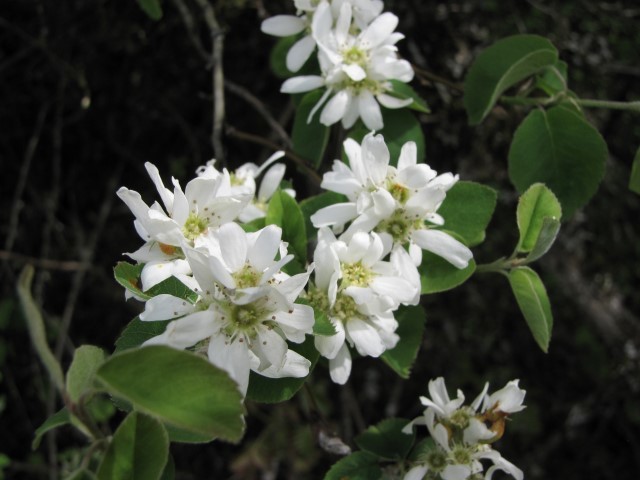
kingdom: Plantae
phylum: Tracheophyta
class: Magnoliopsida
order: Rosales
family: Rosaceae
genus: Amelanchier
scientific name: Amelanchier alnifolia
